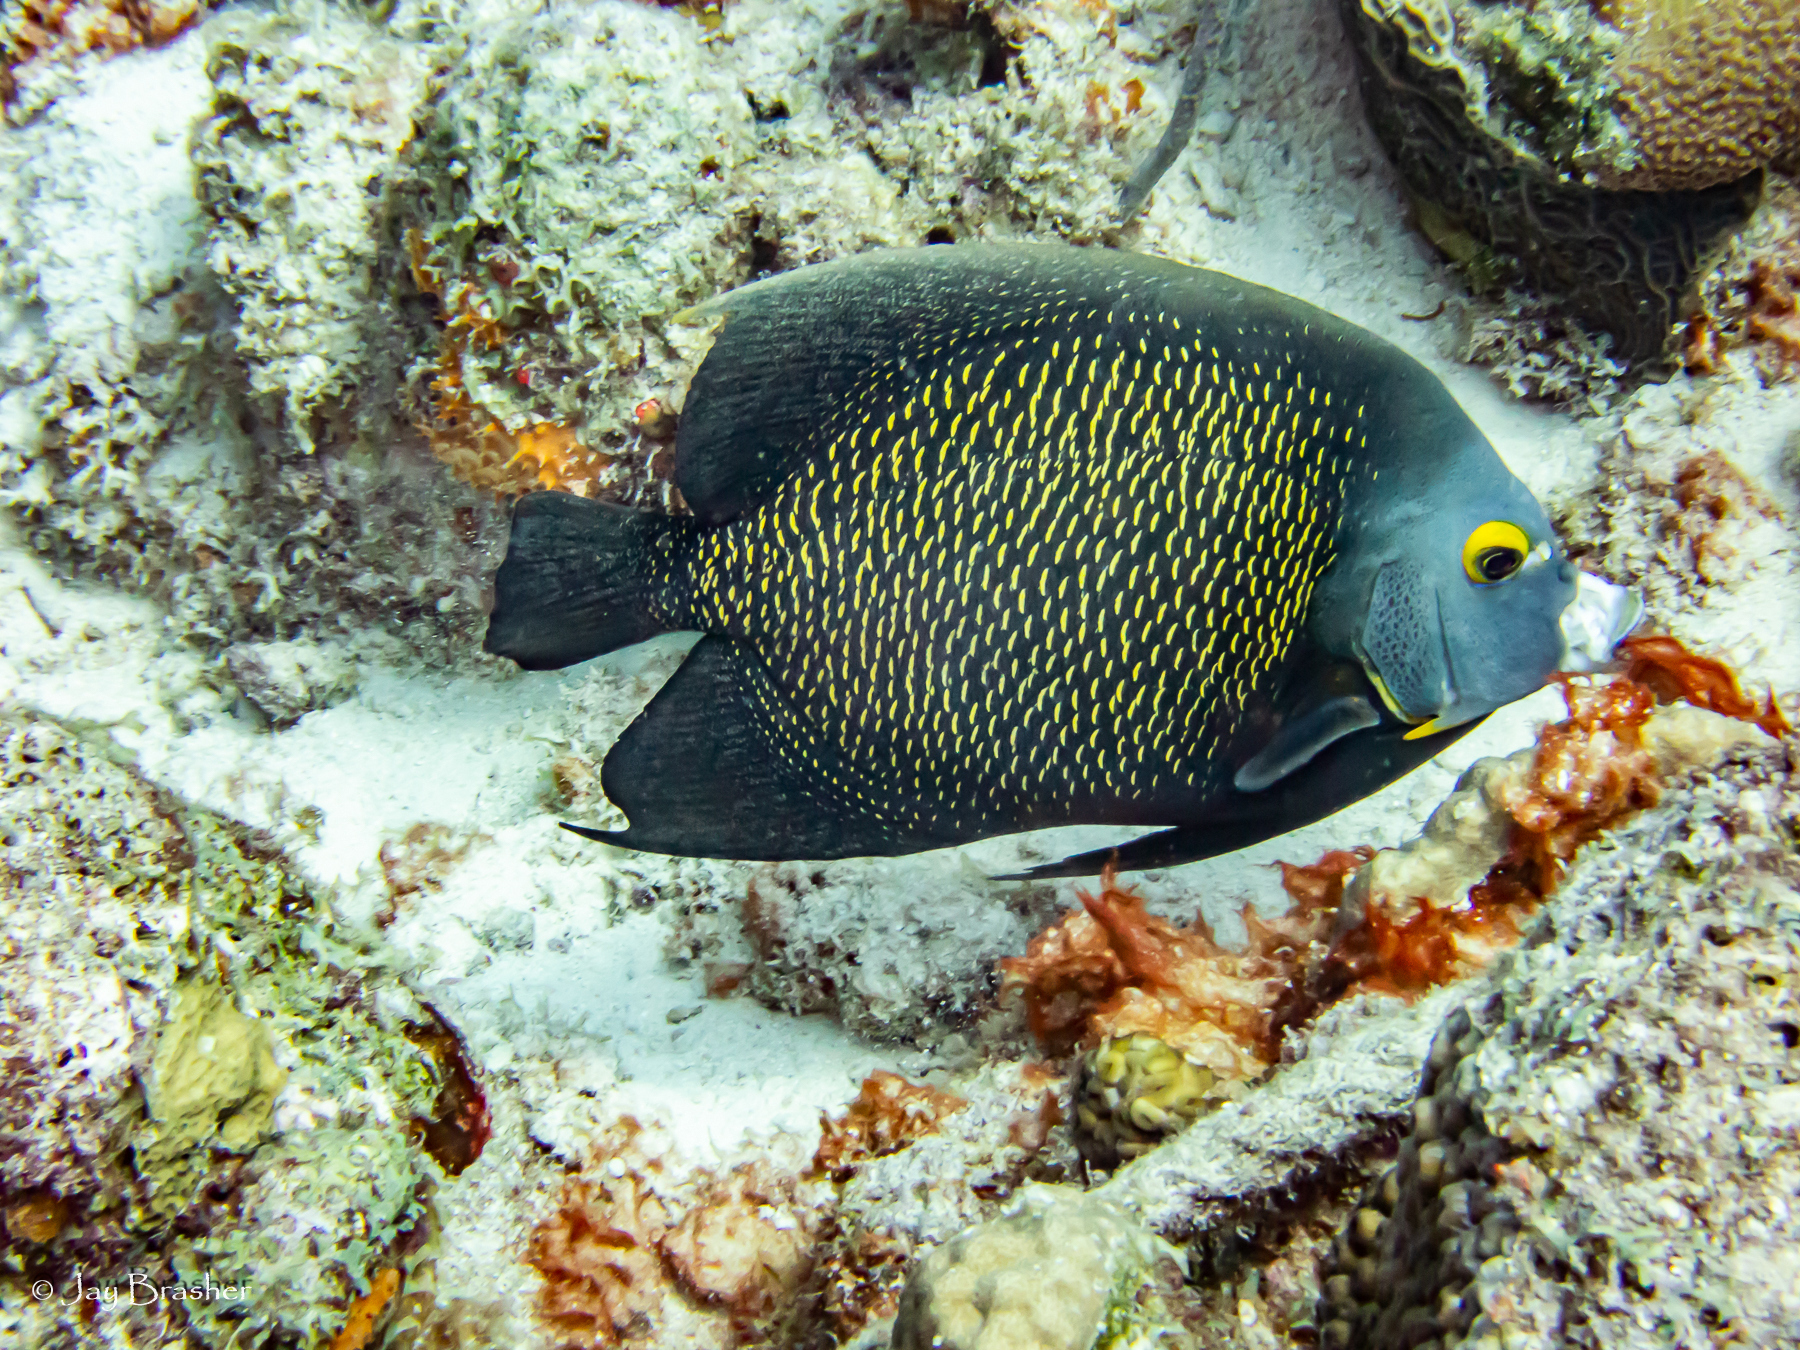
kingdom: Animalia
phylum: Chordata
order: Perciformes
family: Pomacanthidae
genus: Pomacanthus
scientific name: Pomacanthus paru
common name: French angelfish
